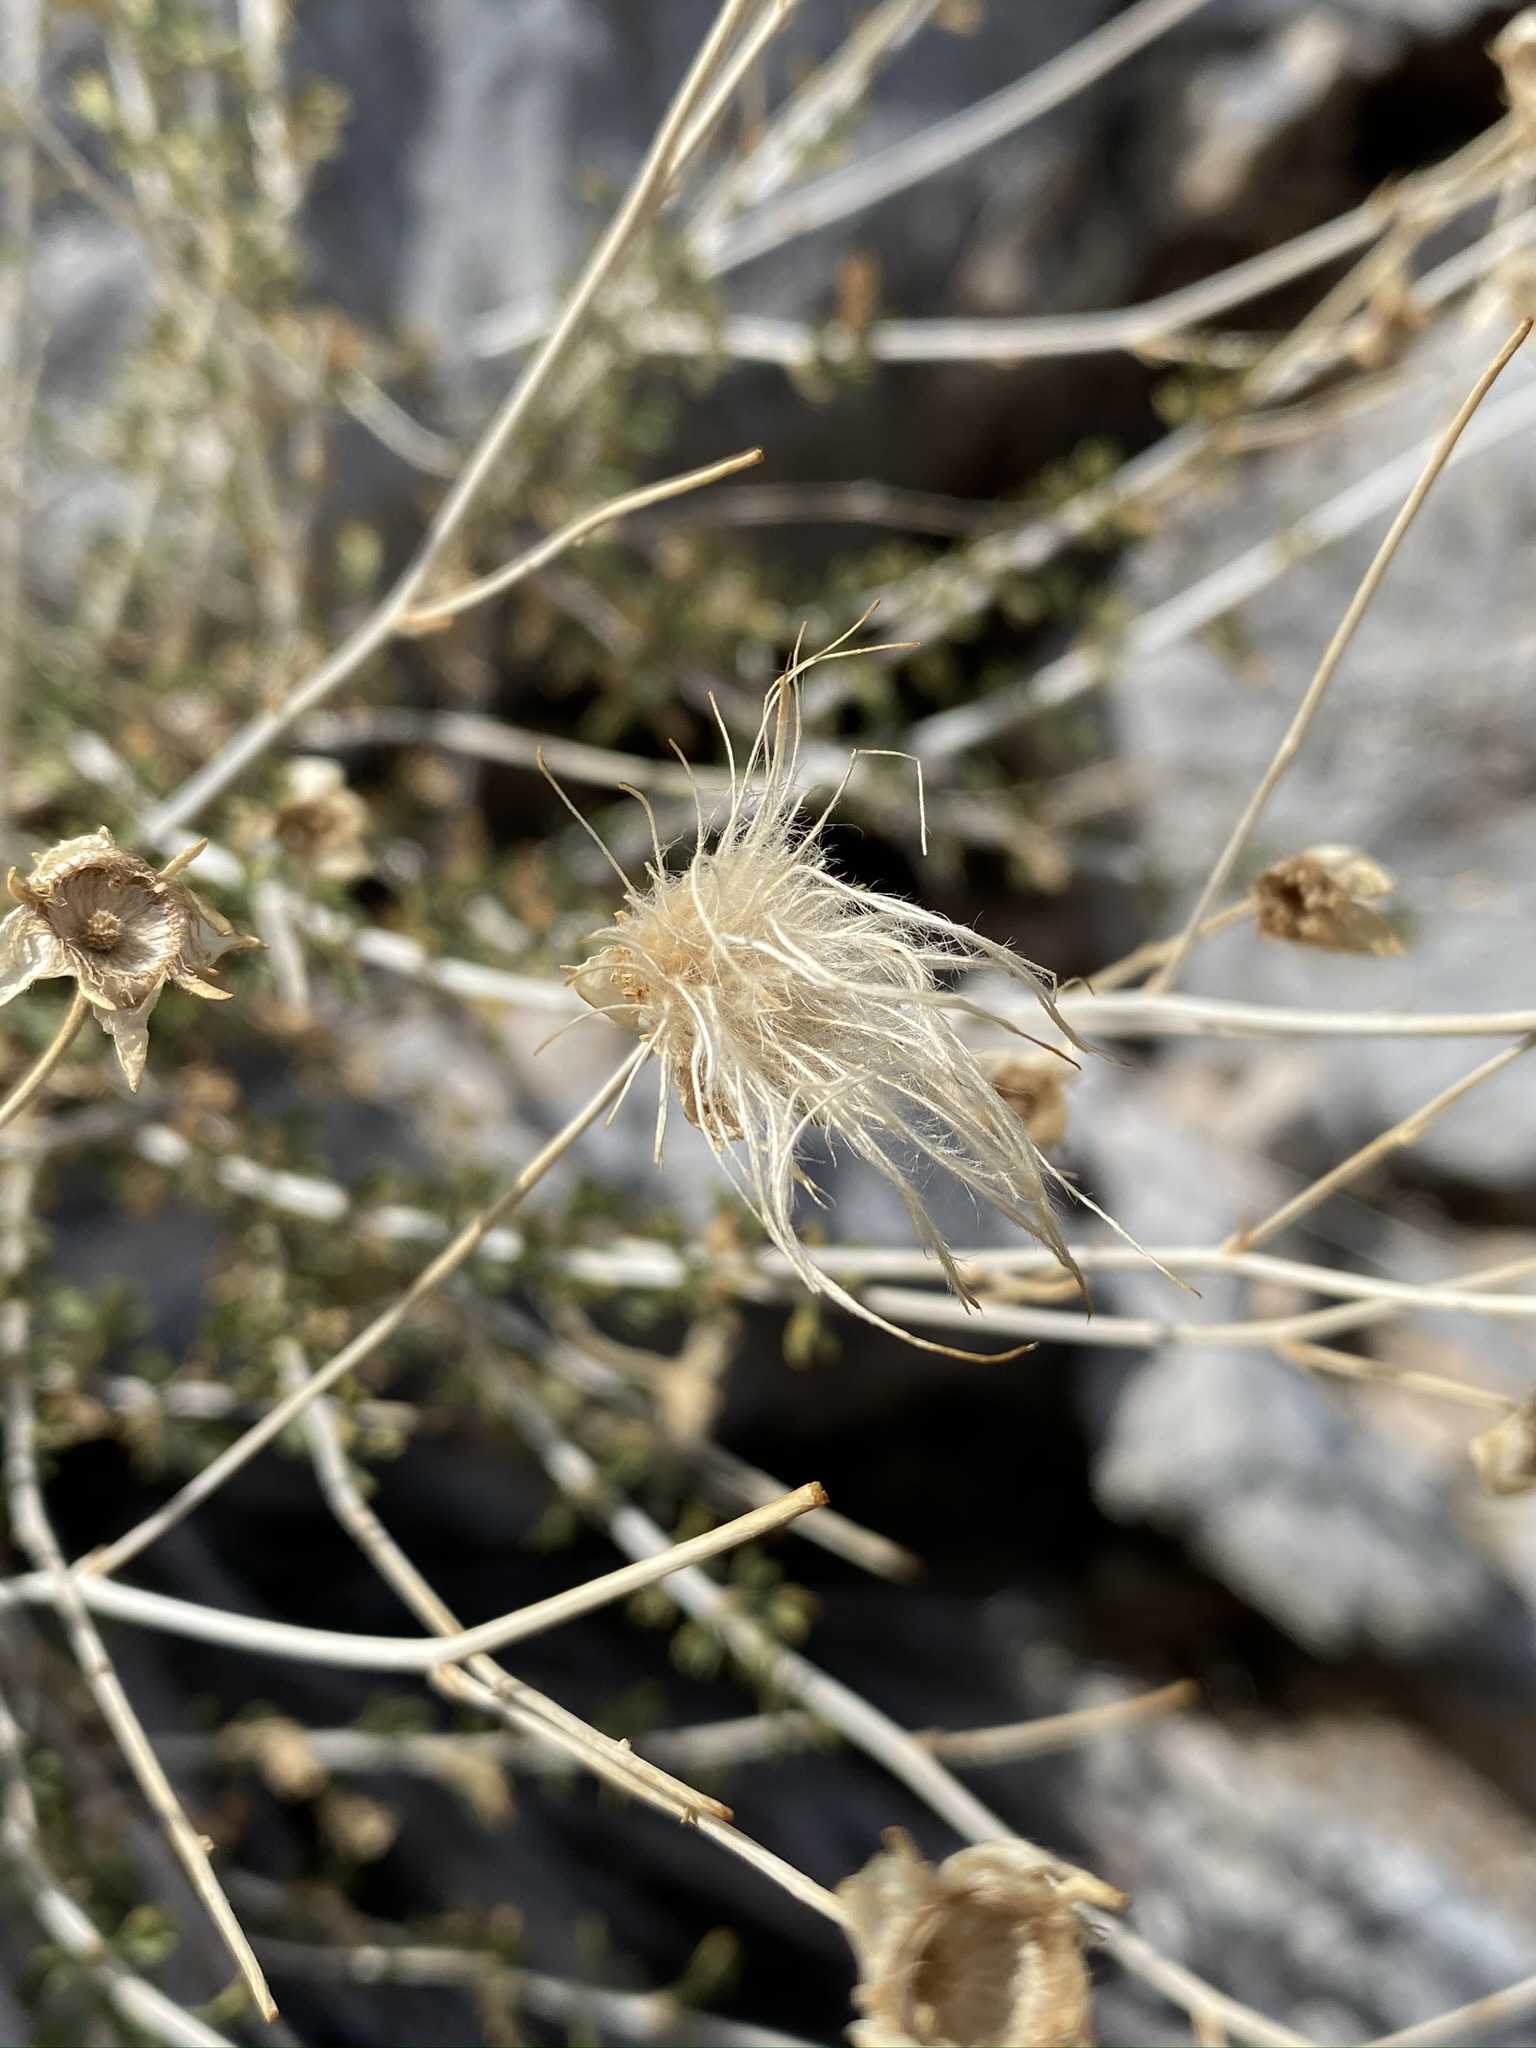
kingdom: Plantae
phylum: Tracheophyta
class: Magnoliopsida
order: Rosales
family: Rosaceae
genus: Fallugia
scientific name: Fallugia paradoxa
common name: Apache-plume
